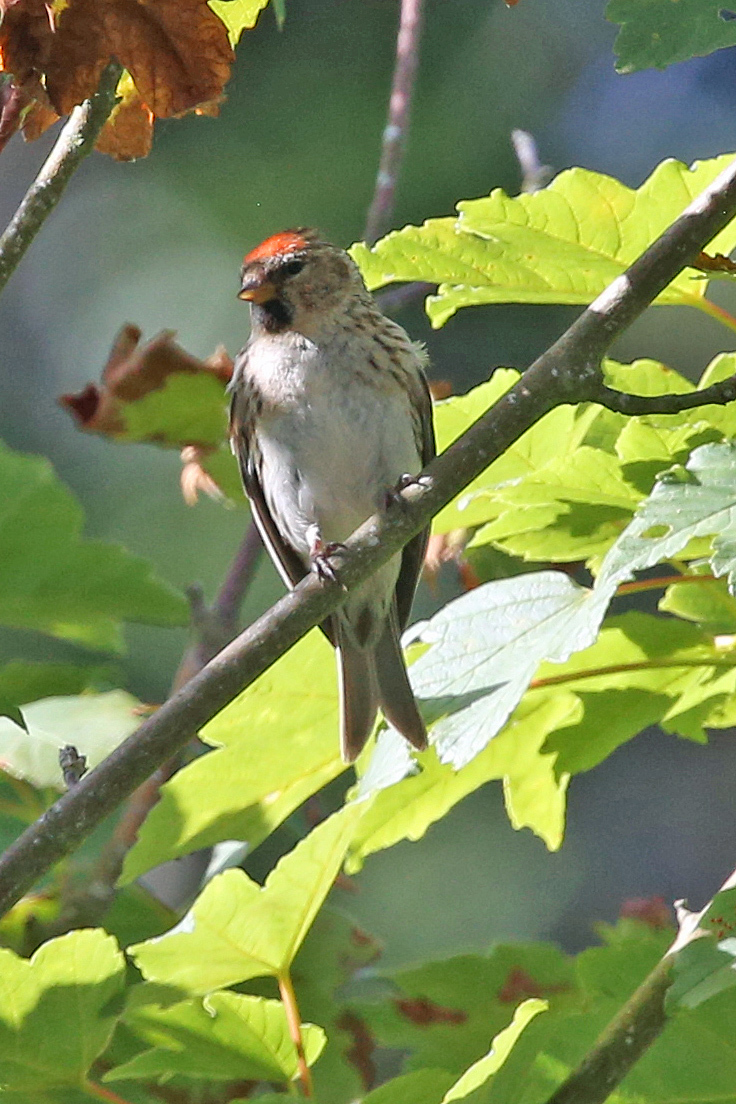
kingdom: Animalia
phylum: Chordata
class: Aves
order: Passeriformes
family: Fringillidae
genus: Acanthis
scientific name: Acanthis flammea
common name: Common redpoll
